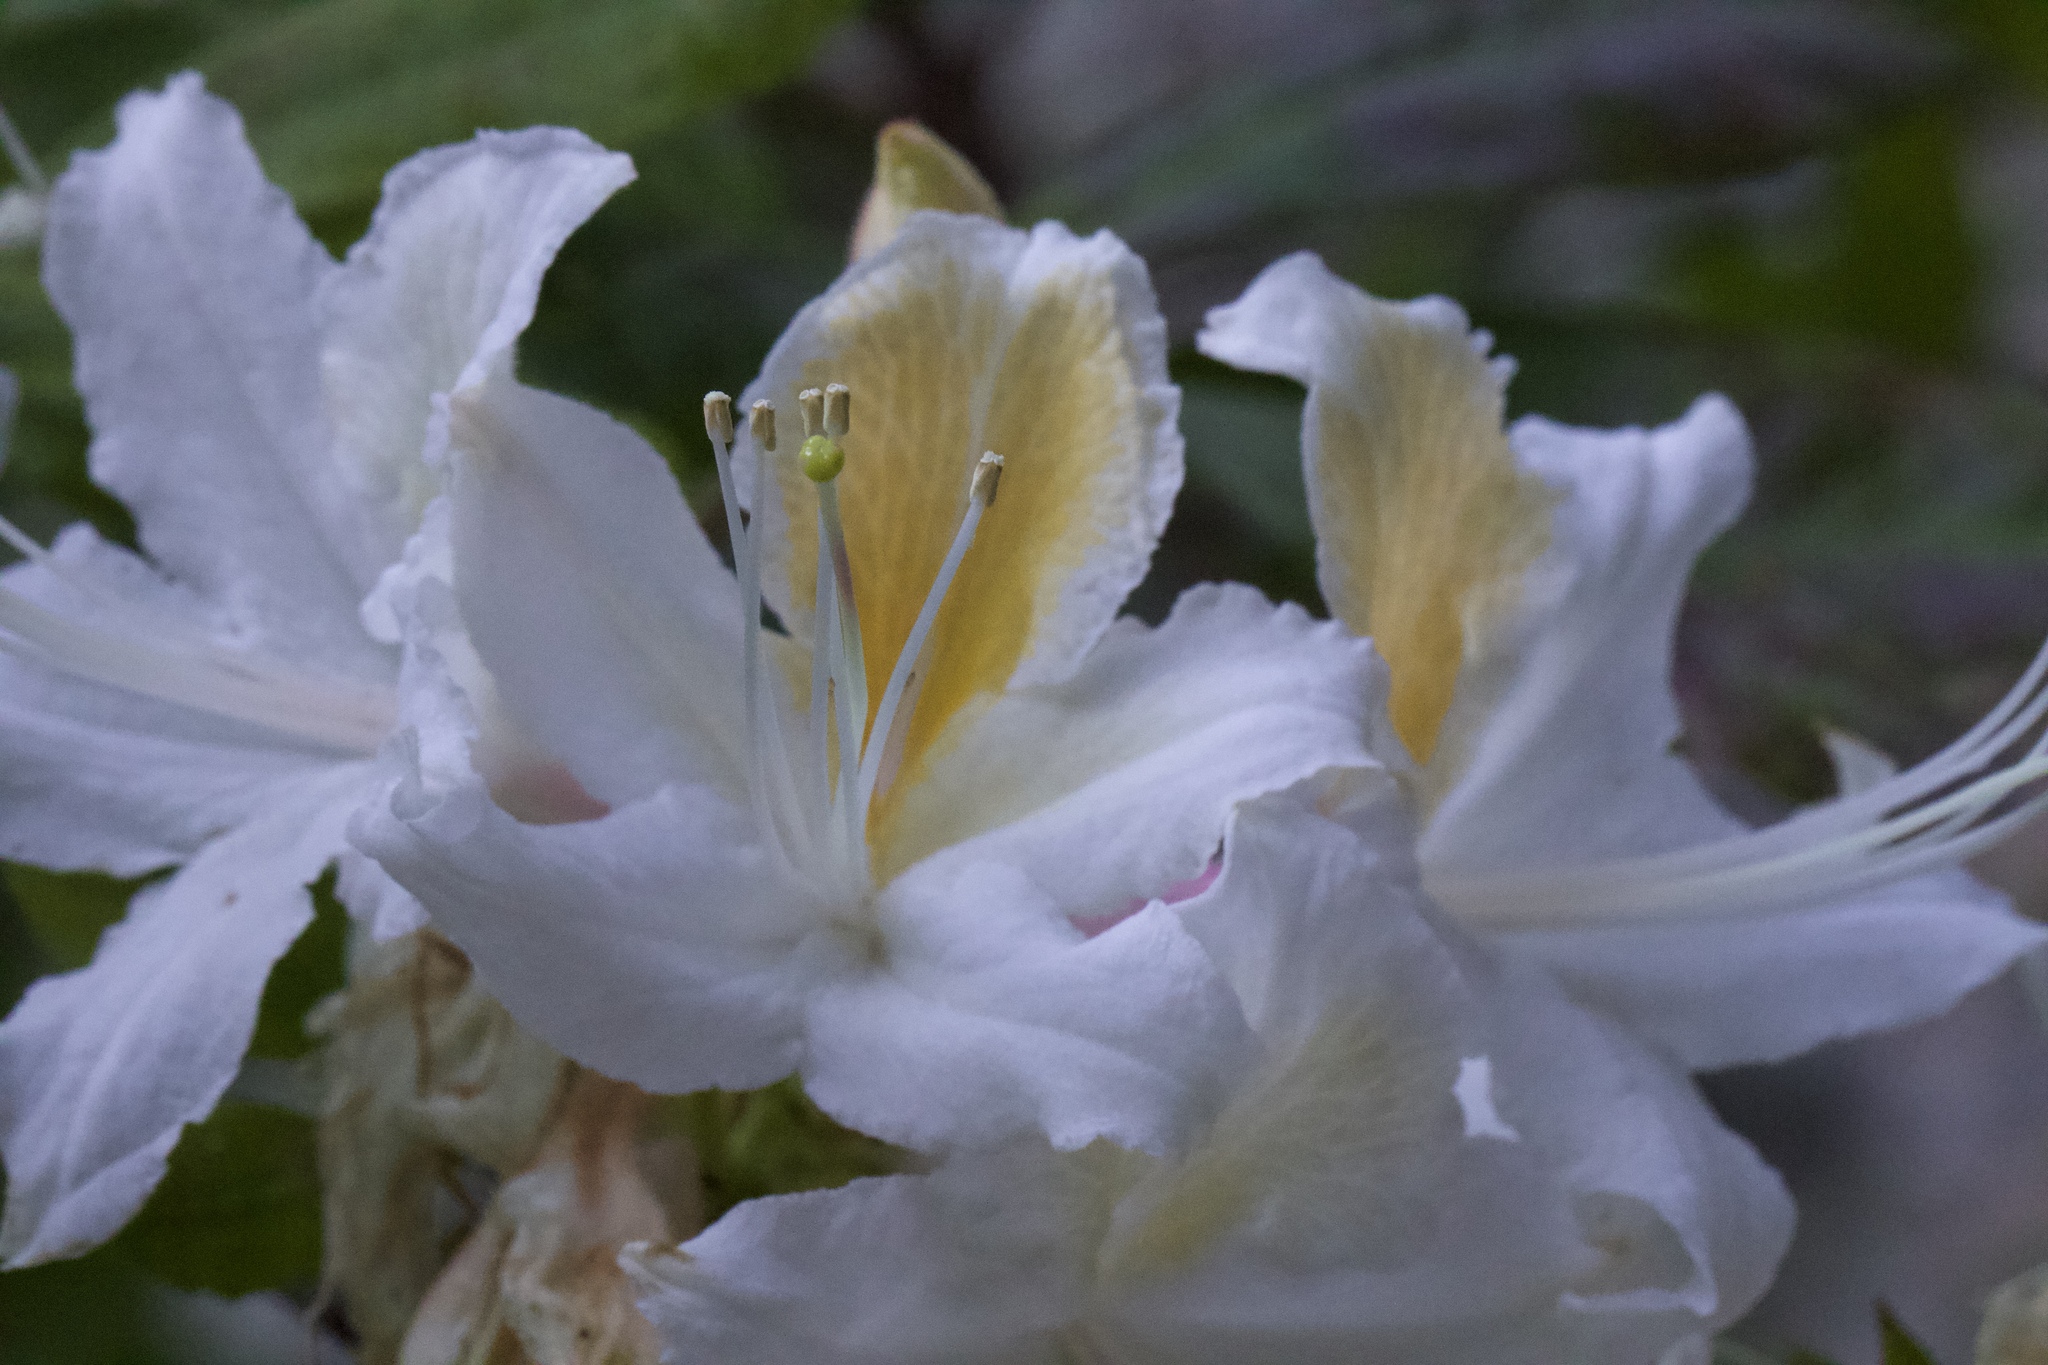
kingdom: Plantae
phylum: Tracheophyta
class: Magnoliopsida
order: Ericales
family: Ericaceae
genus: Rhododendron
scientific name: Rhododendron occidentale
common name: Western azalea
